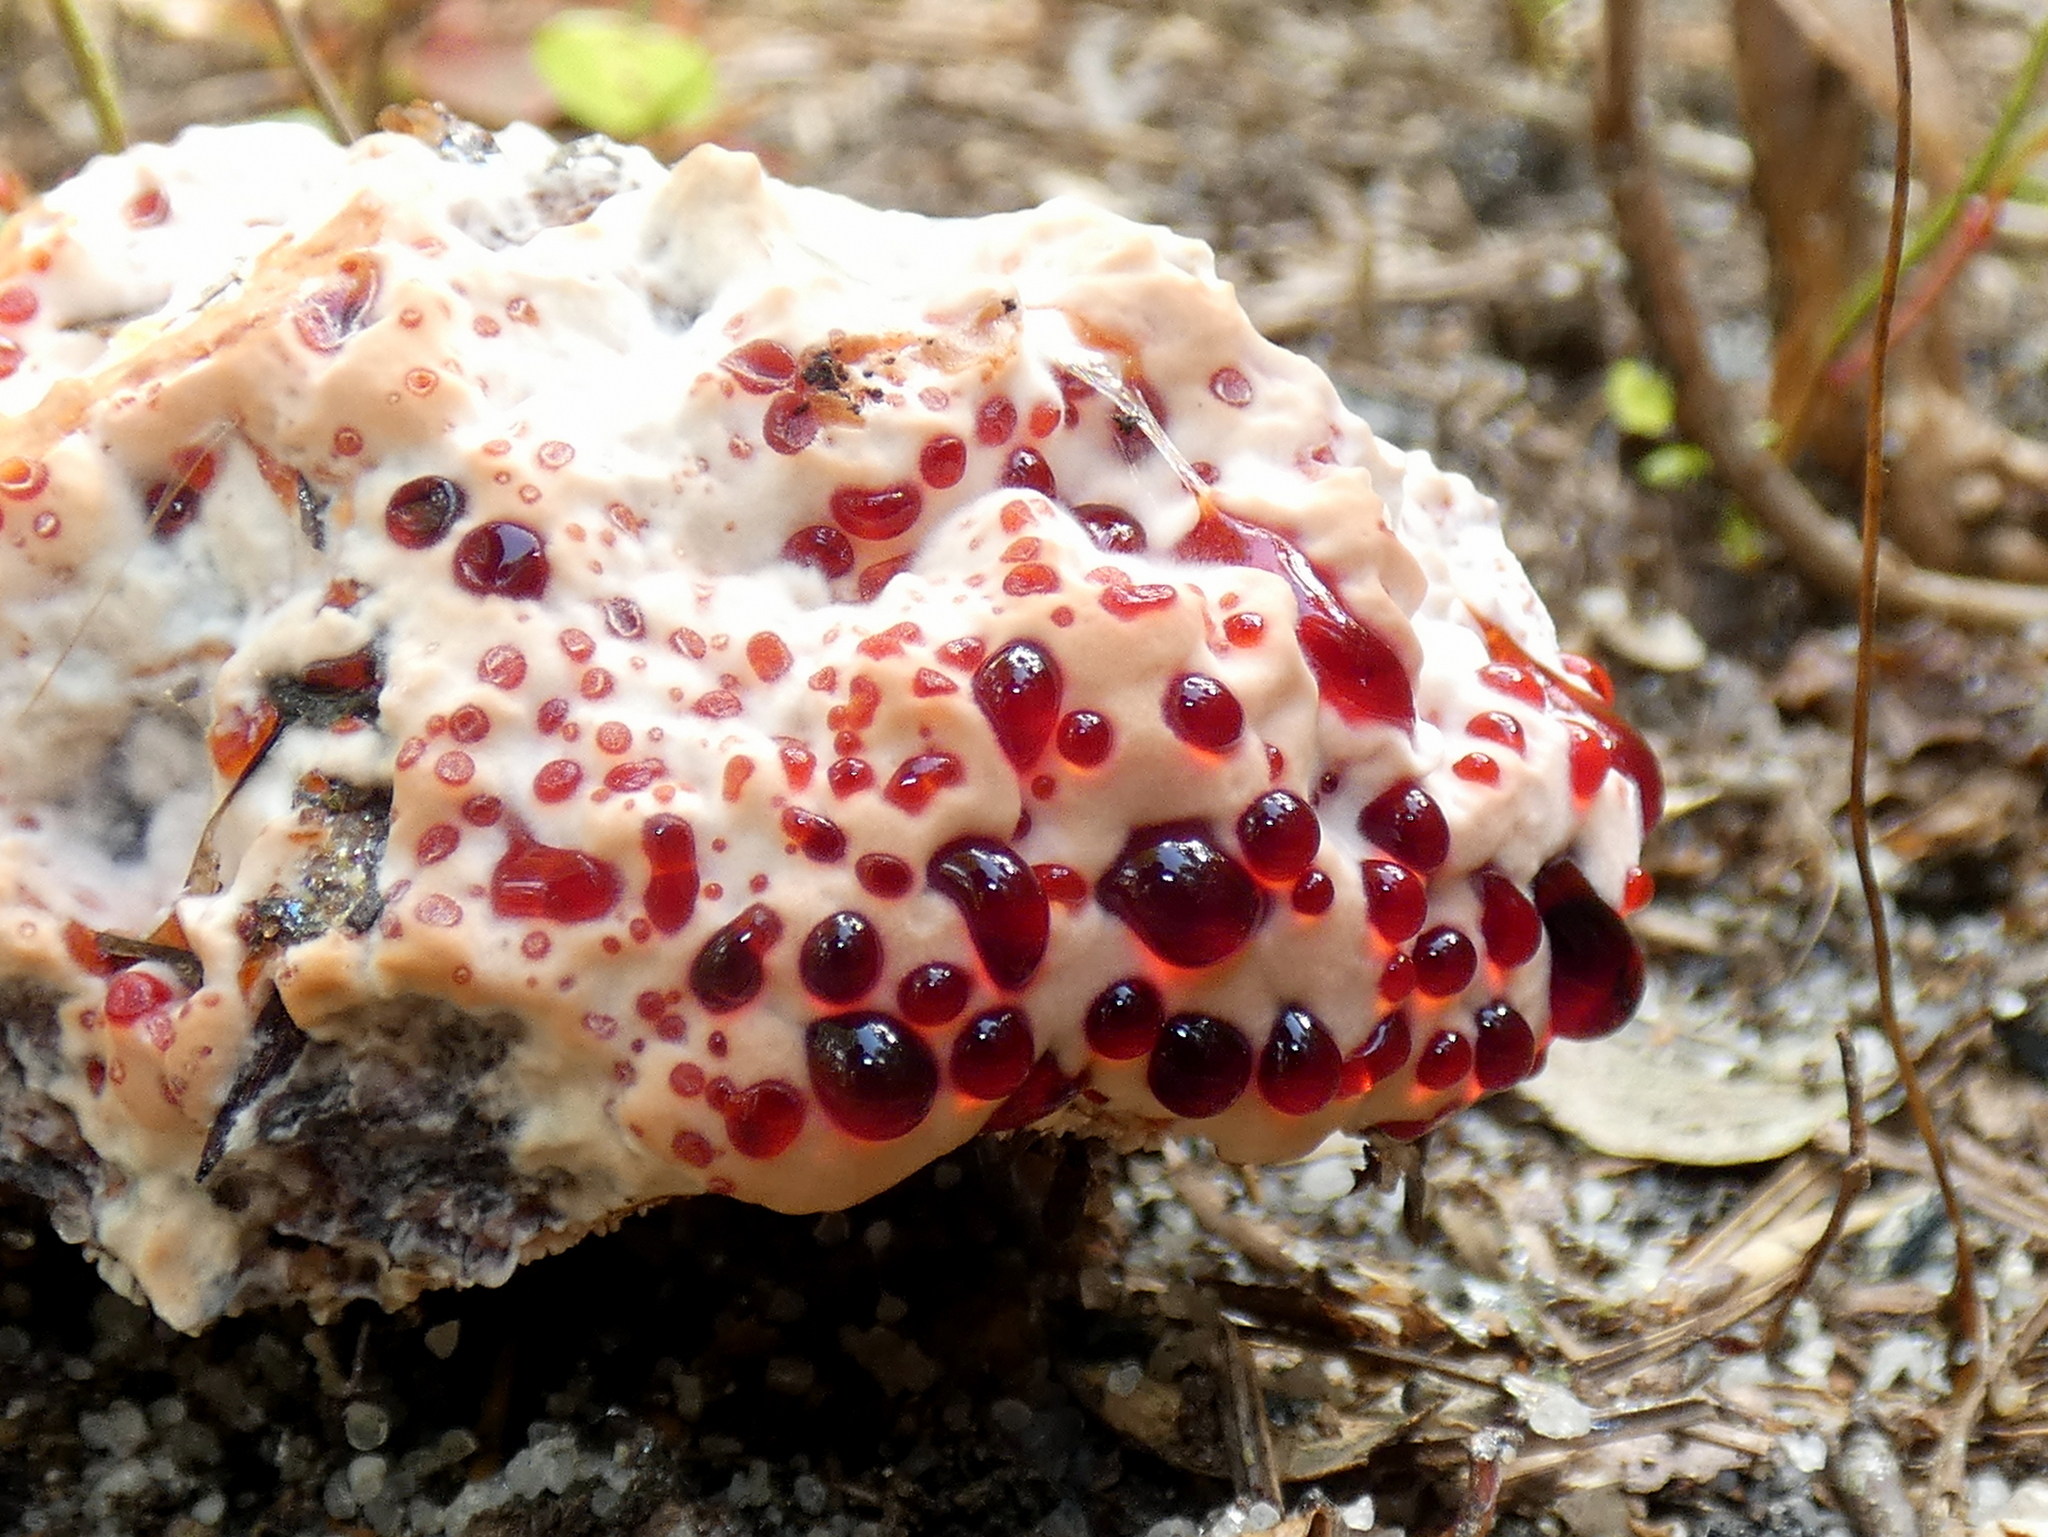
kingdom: Fungi
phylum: Basidiomycota
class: Agaricomycetes
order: Thelephorales
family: Bankeraceae
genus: Hydnellum
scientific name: Hydnellum peckii
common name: Devil's tooth
